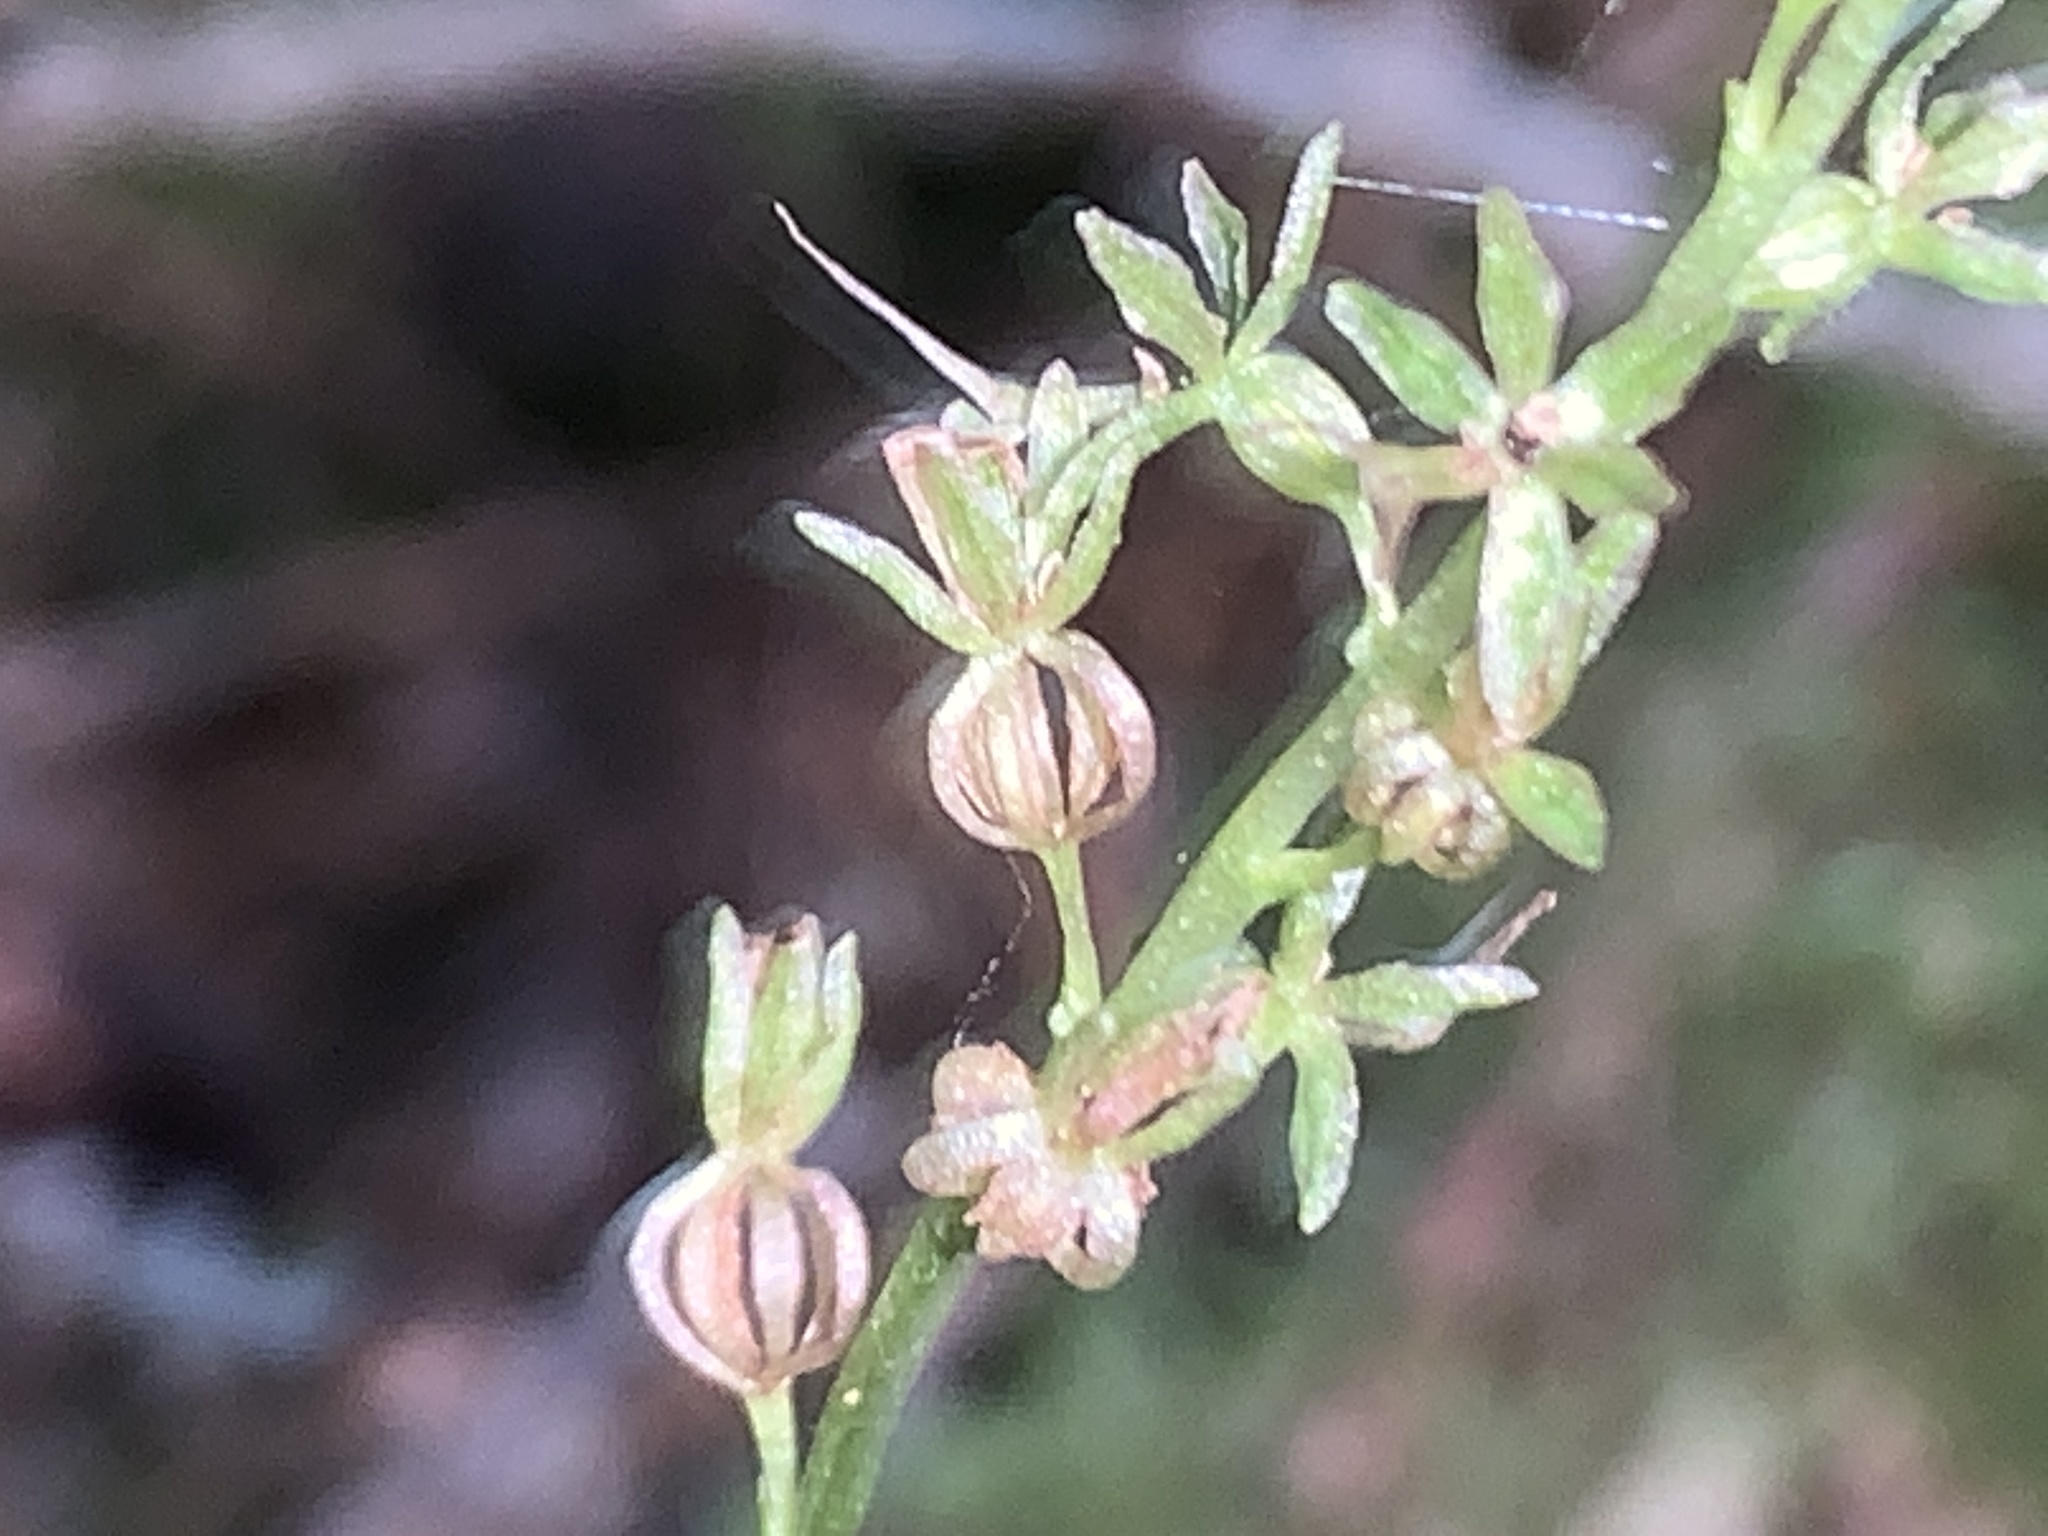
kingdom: Plantae
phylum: Tracheophyta
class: Liliopsida
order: Asparagales
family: Orchidaceae
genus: Neottia
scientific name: Neottia cordata
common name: Lesser twayblade
